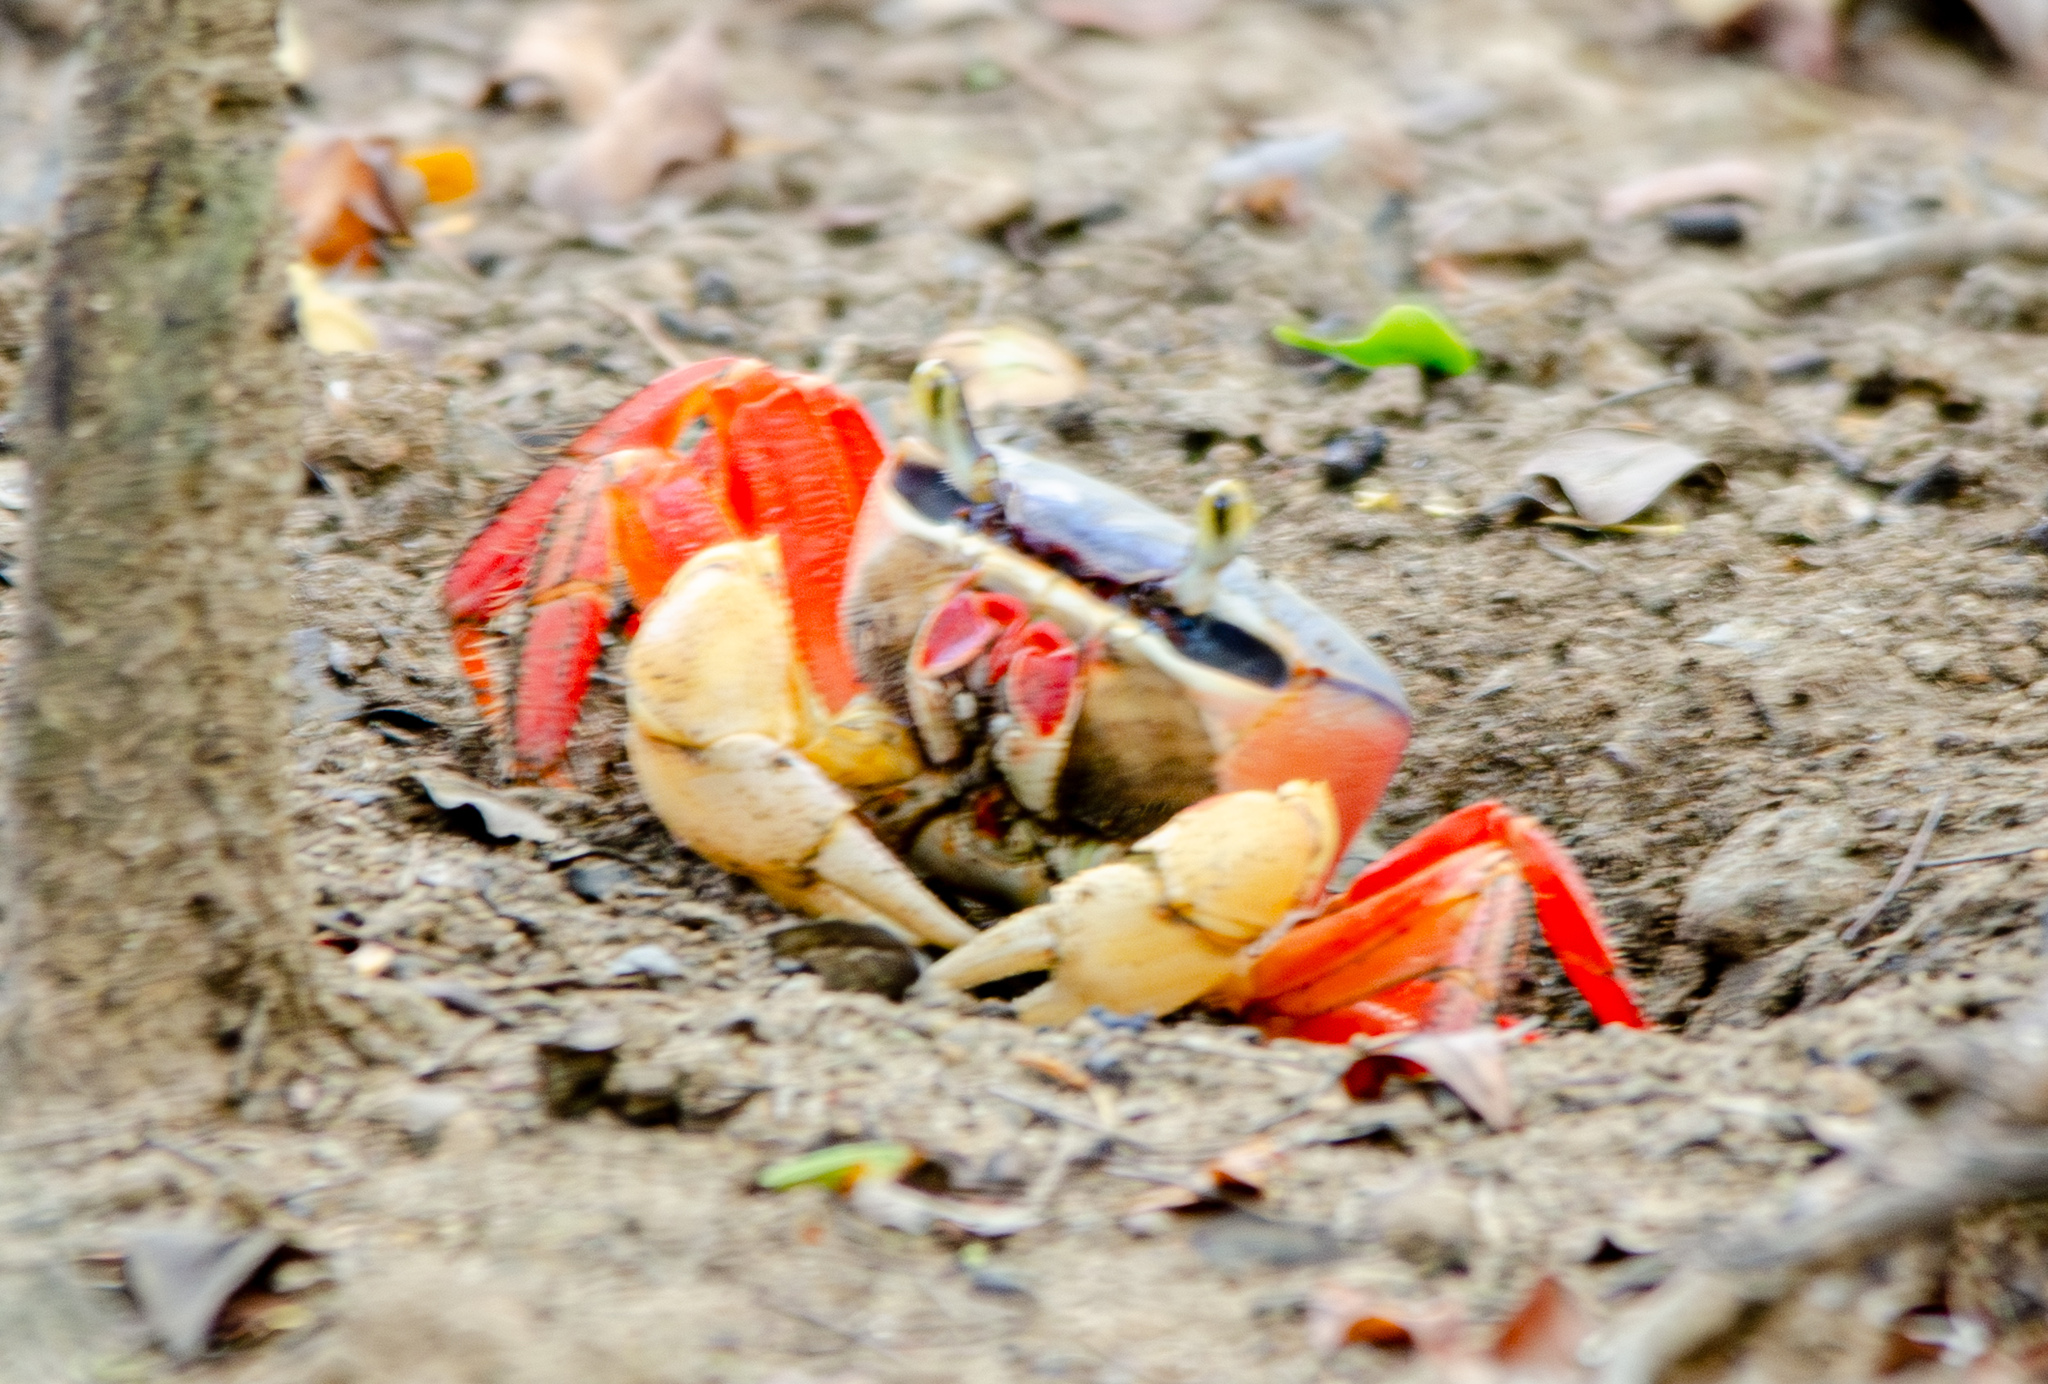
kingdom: Animalia
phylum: Arthropoda
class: Malacostraca
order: Decapoda
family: Gecarcinidae
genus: Cardisoma
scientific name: Cardisoma crassum
